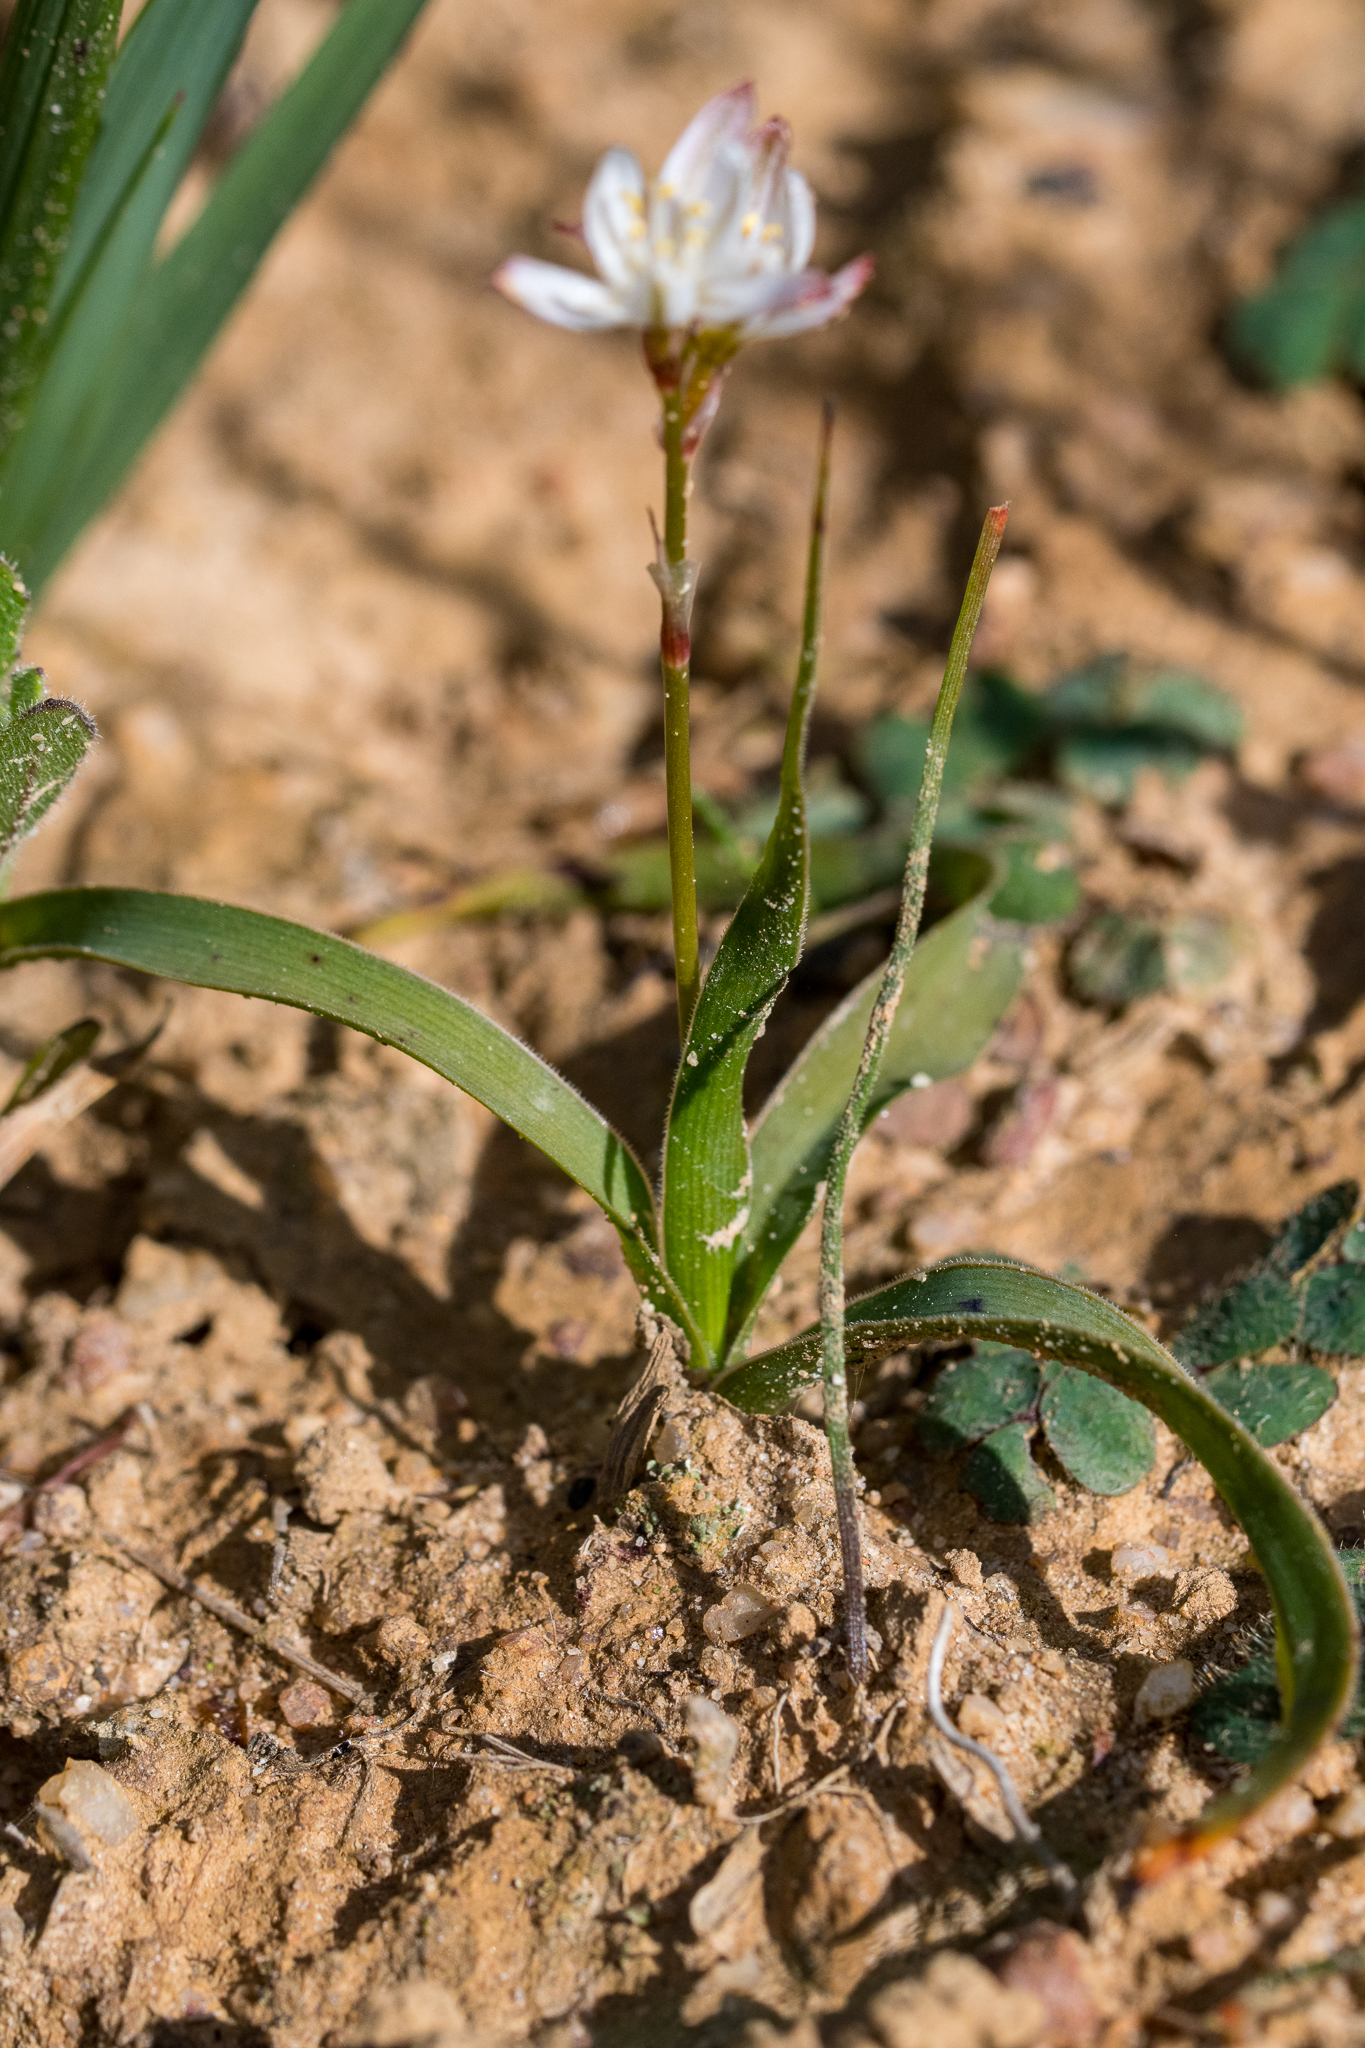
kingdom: Plantae
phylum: Tracheophyta
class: Liliopsida
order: Asparagales
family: Asparagaceae
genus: Chlorophytum
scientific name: Chlorophytum graminifolium
